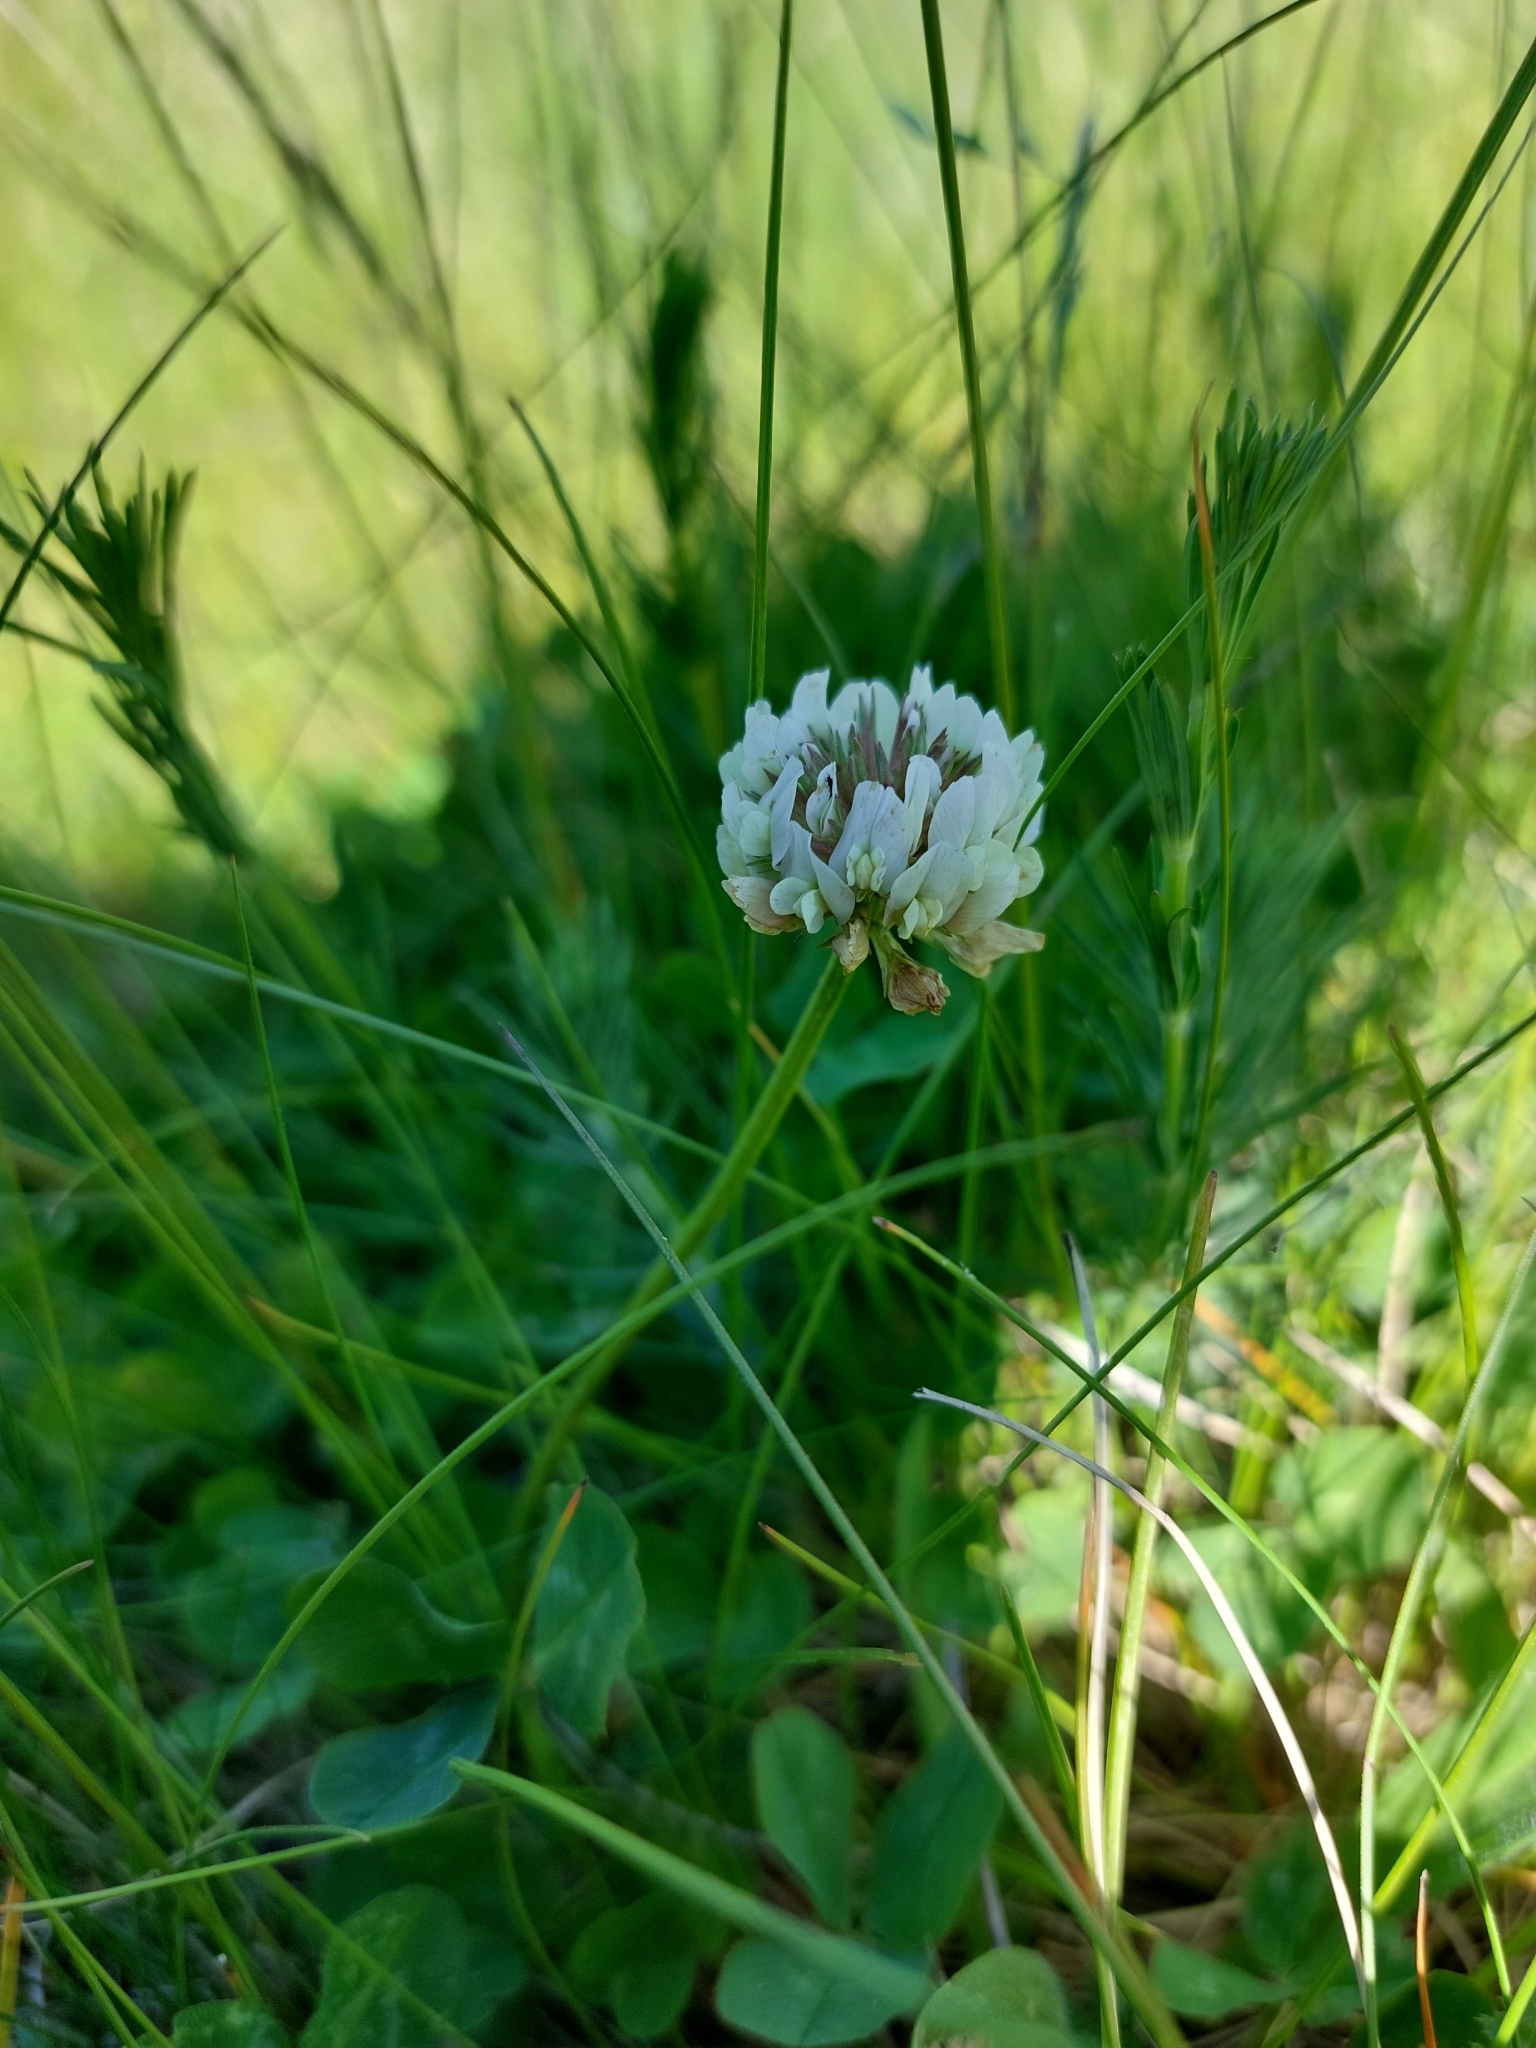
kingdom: Plantae
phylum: Tracheophyta
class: Magnoliopsida
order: Fabales
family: Fabaceae
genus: Trifolium
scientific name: Trifolium repens
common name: White clover
